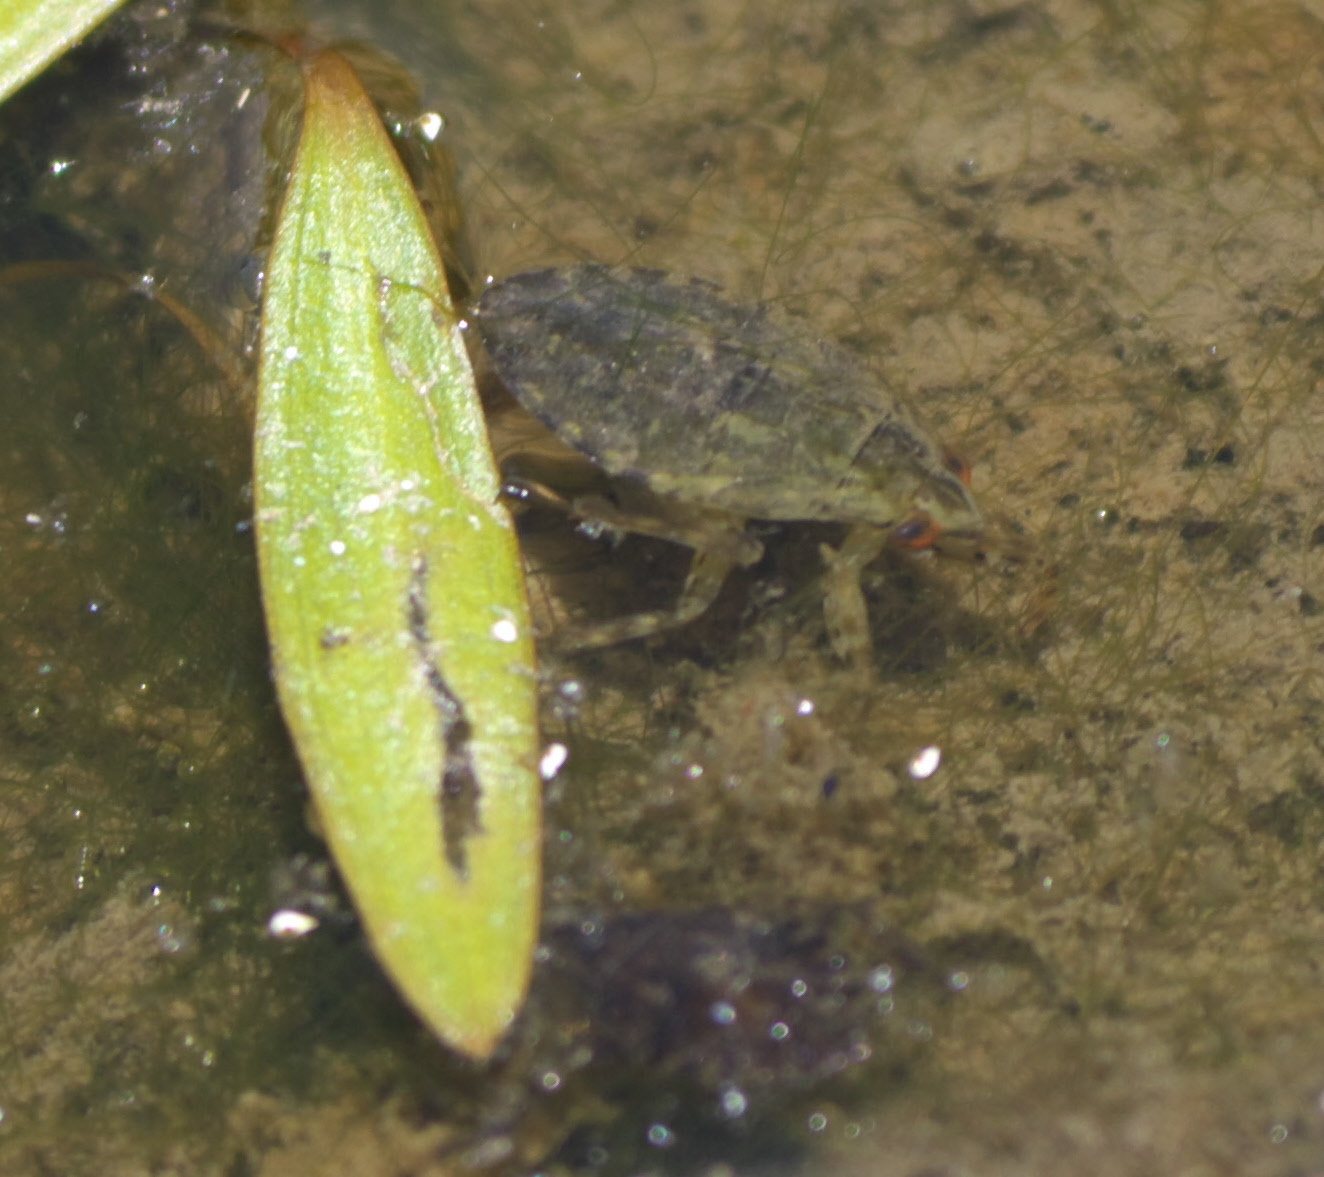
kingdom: Animalia
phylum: Arthropoda
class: Insecta
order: Hemiptera
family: Belostomatidae
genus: Belostoma
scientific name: Belostoma
